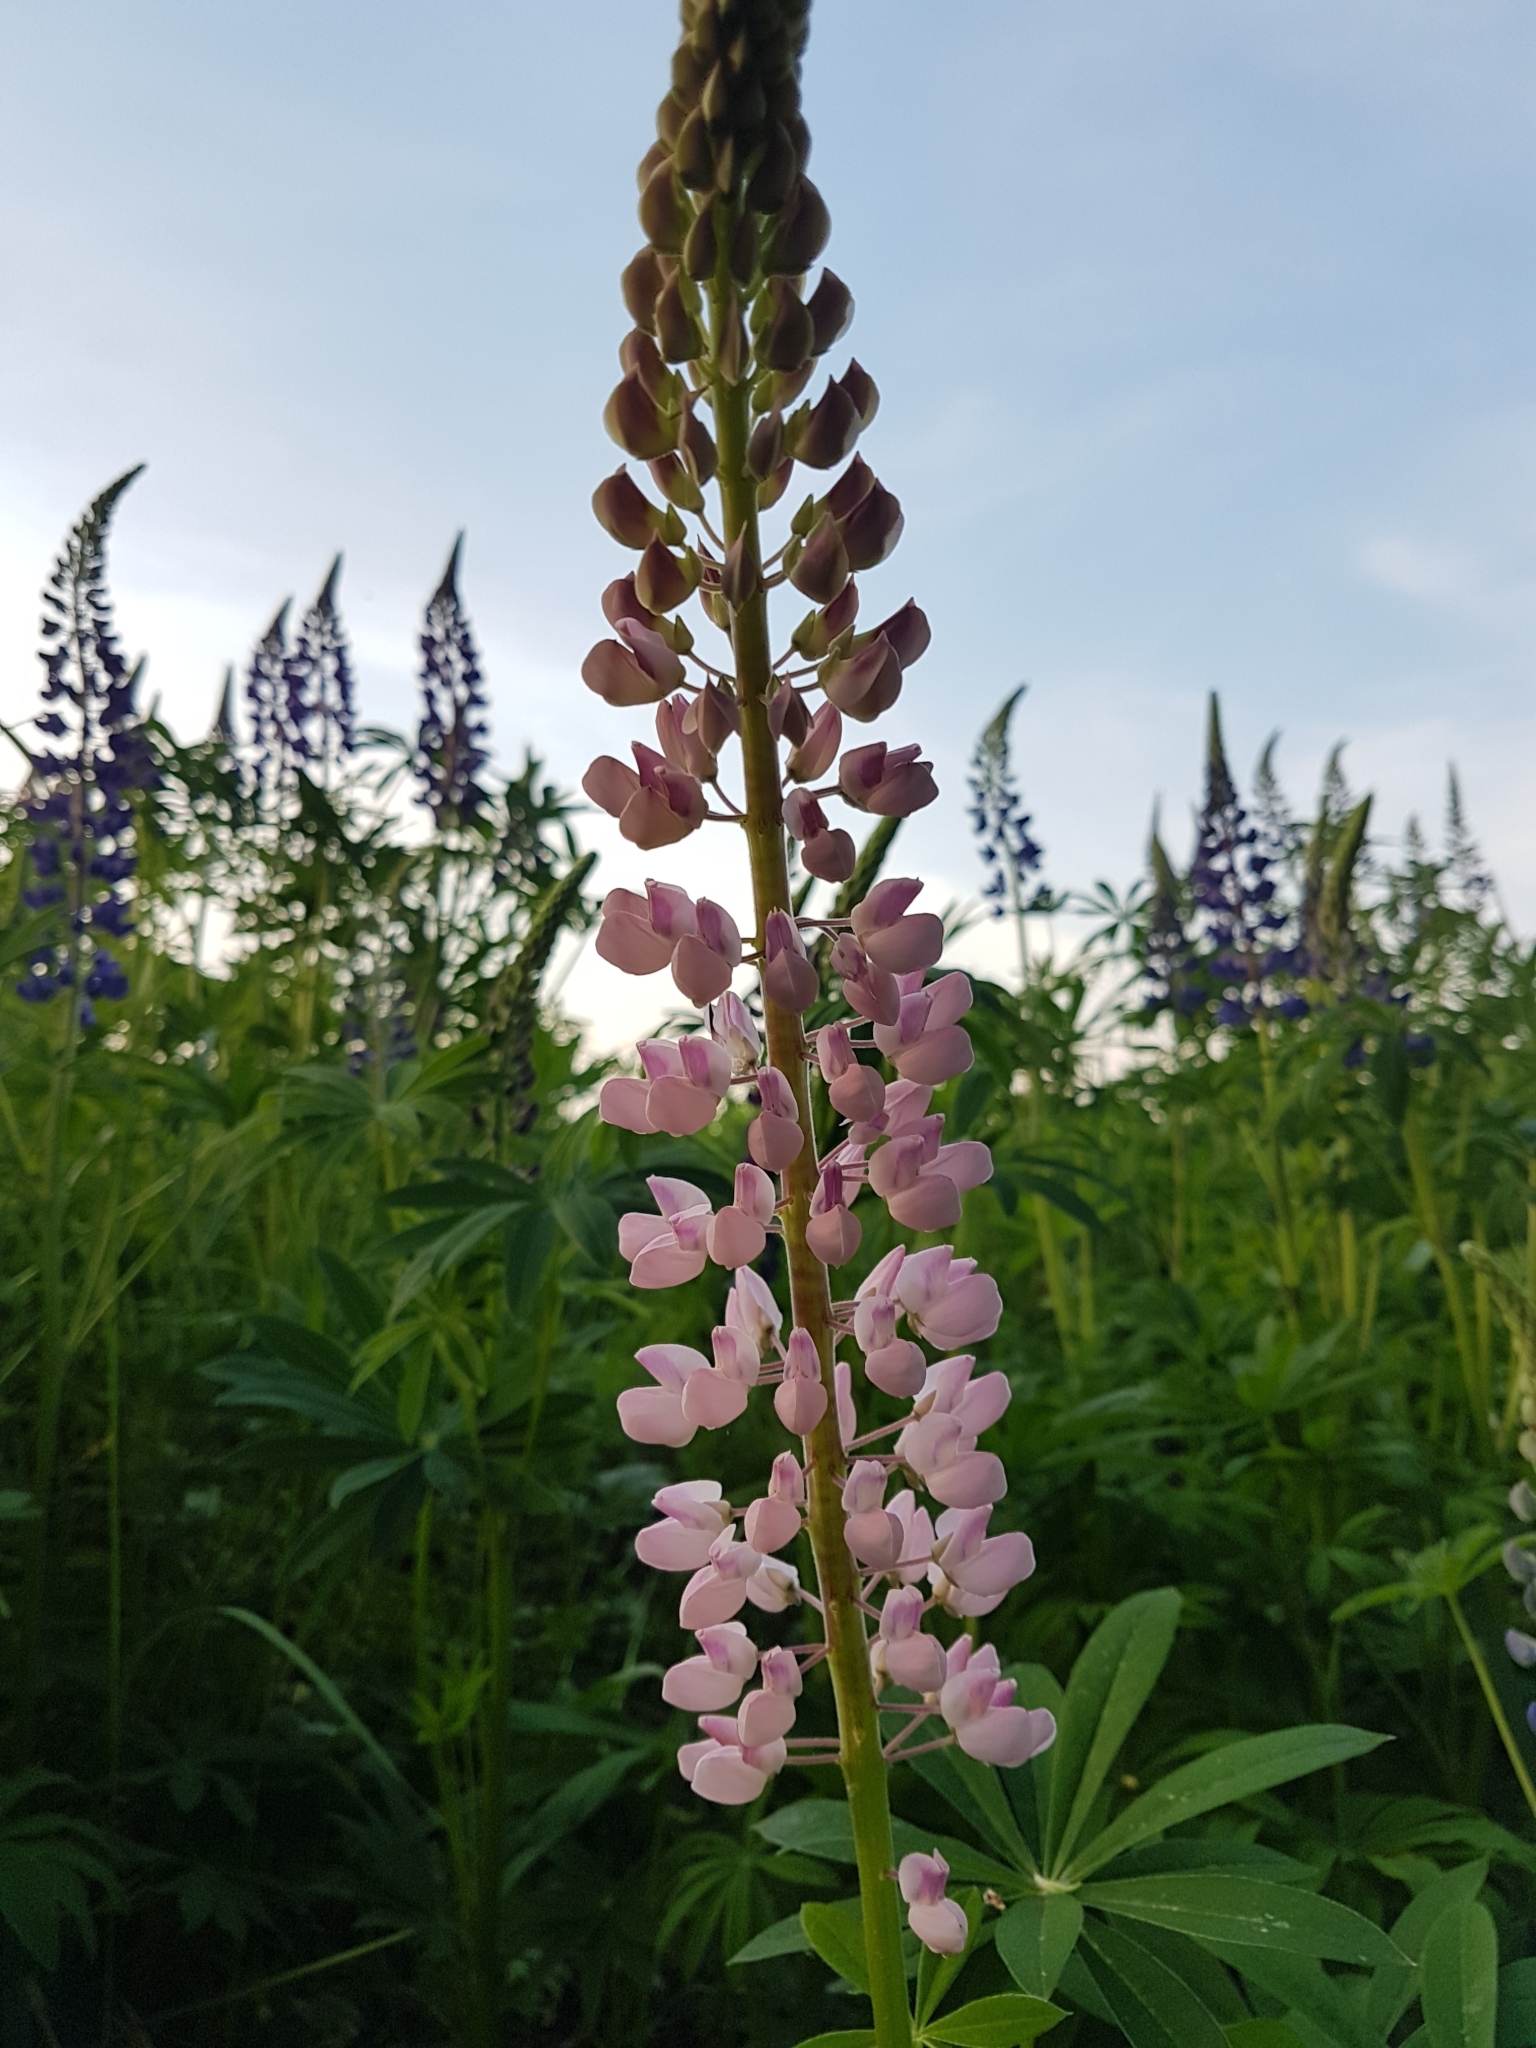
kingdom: Plantae
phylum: Tracheophyta
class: Magnoliopsida
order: Fabales
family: Fabaceae
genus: Lupinus
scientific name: Lupinus polyphyllus
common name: Garden lupin
